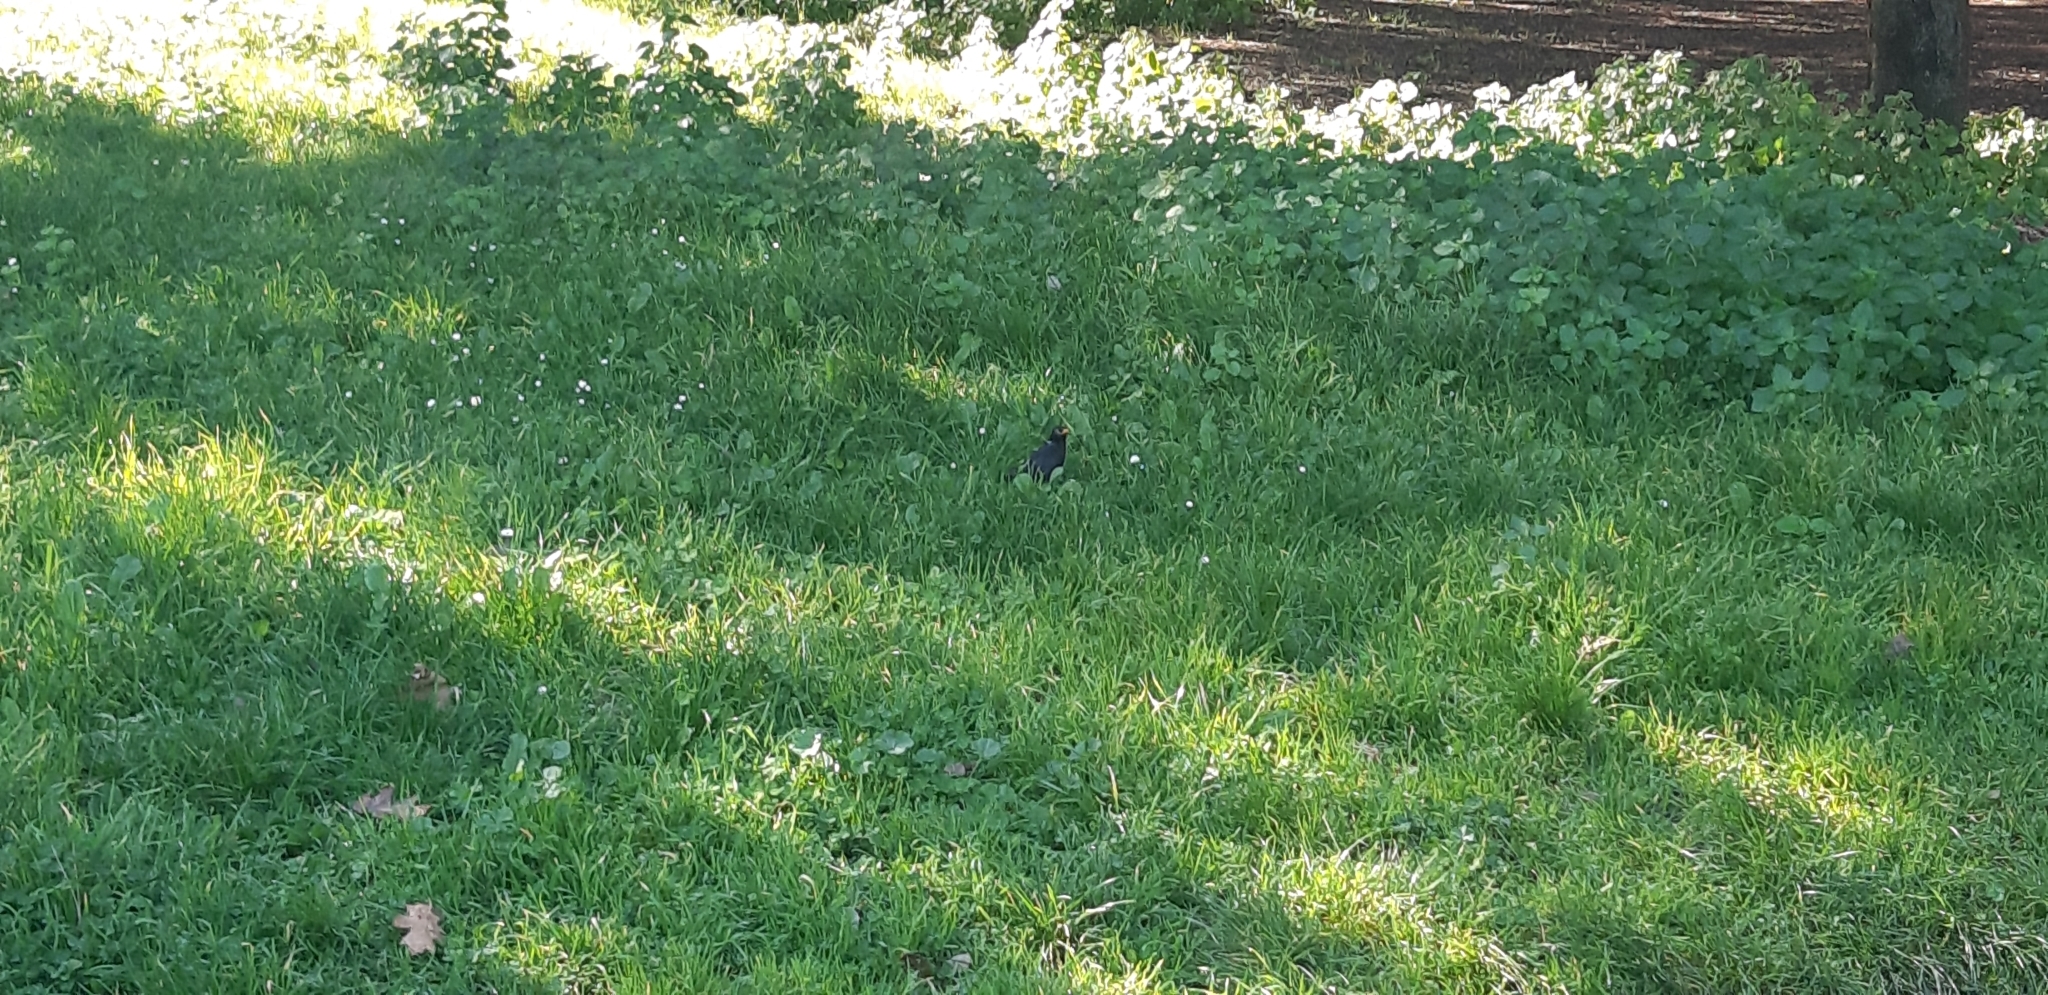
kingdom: Animalia
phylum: Chordata
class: Aves
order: Passeriformes
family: Turdidae
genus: Turdus
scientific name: Turdus merula
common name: Common blackbird
